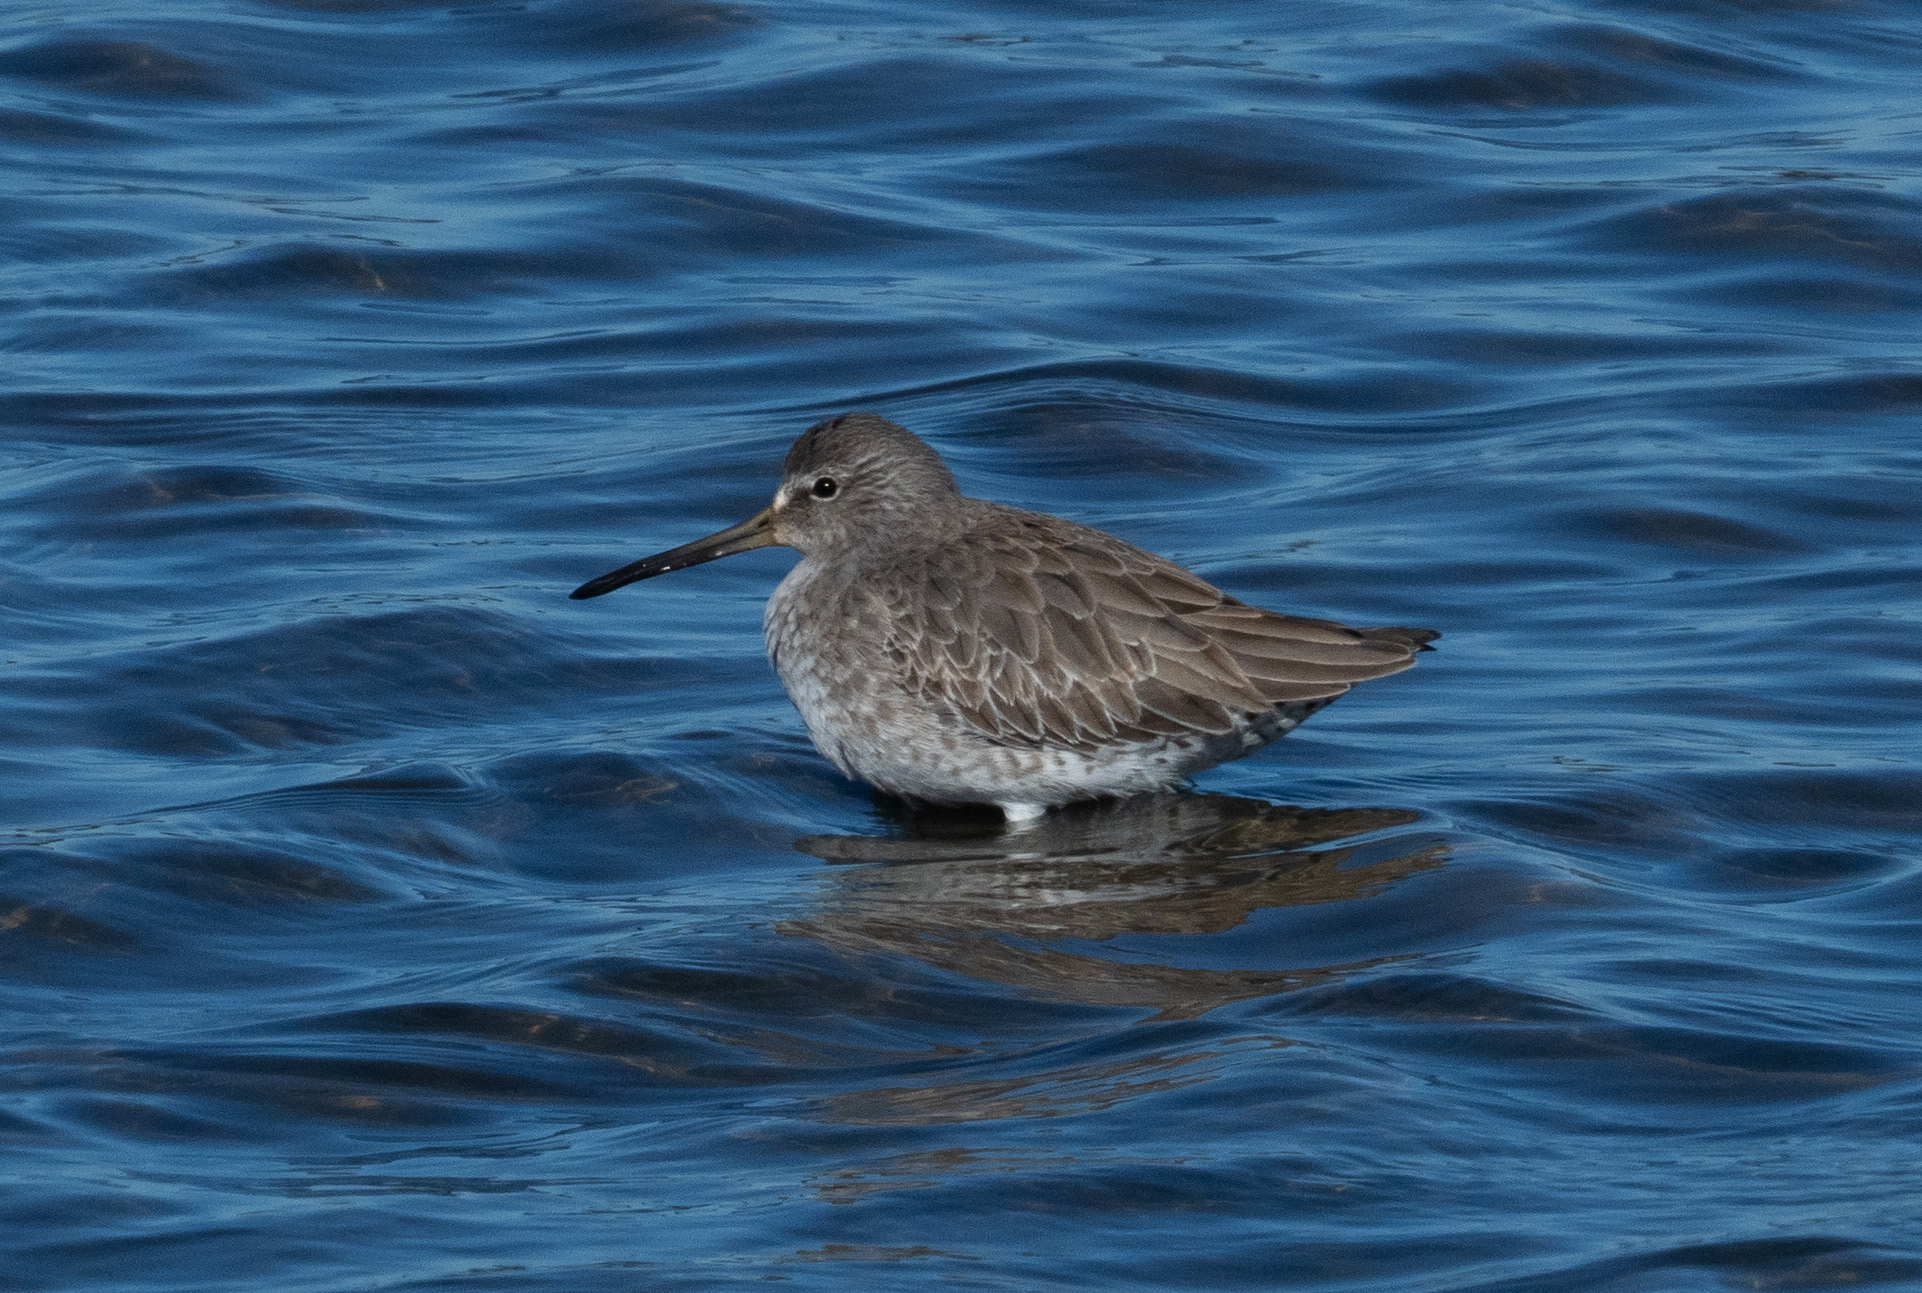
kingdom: Animalia
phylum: Chordata
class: Aves
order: Charadriiformes
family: Scolopacidae
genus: Limnodromus
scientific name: Limnodromus griseus
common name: Short-billed dowitcher
